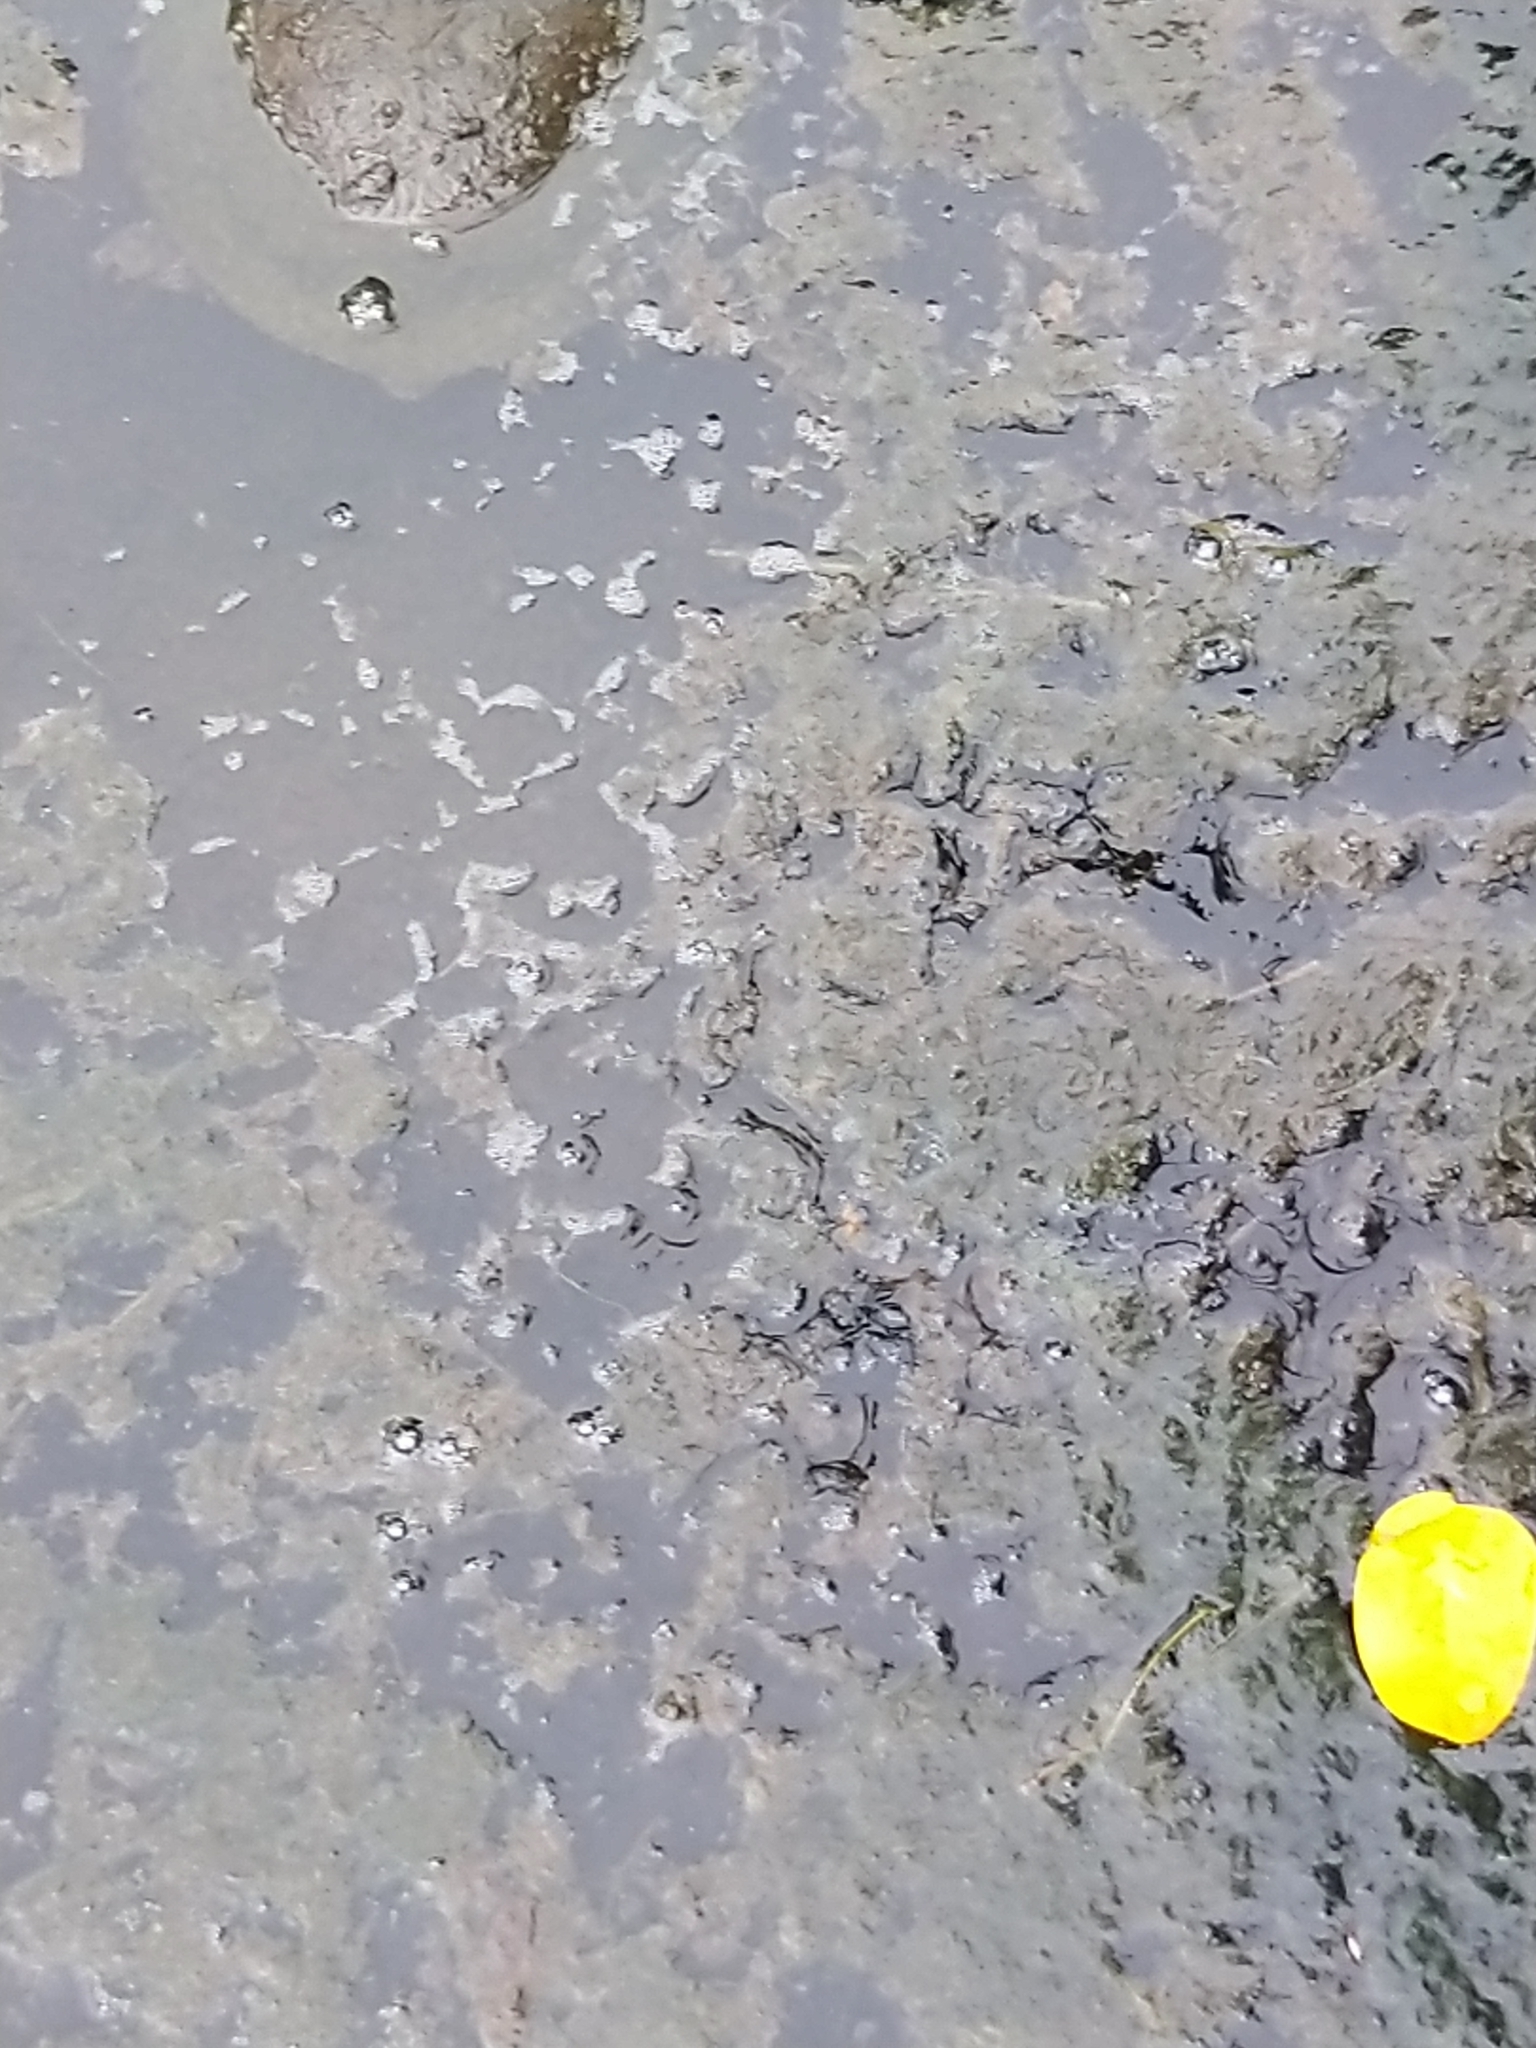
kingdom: Animalia
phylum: Chordata
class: Testudines
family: Trionychidae
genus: Lissemys
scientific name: Lissemys punctata
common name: Indian flap-shelled turtle
